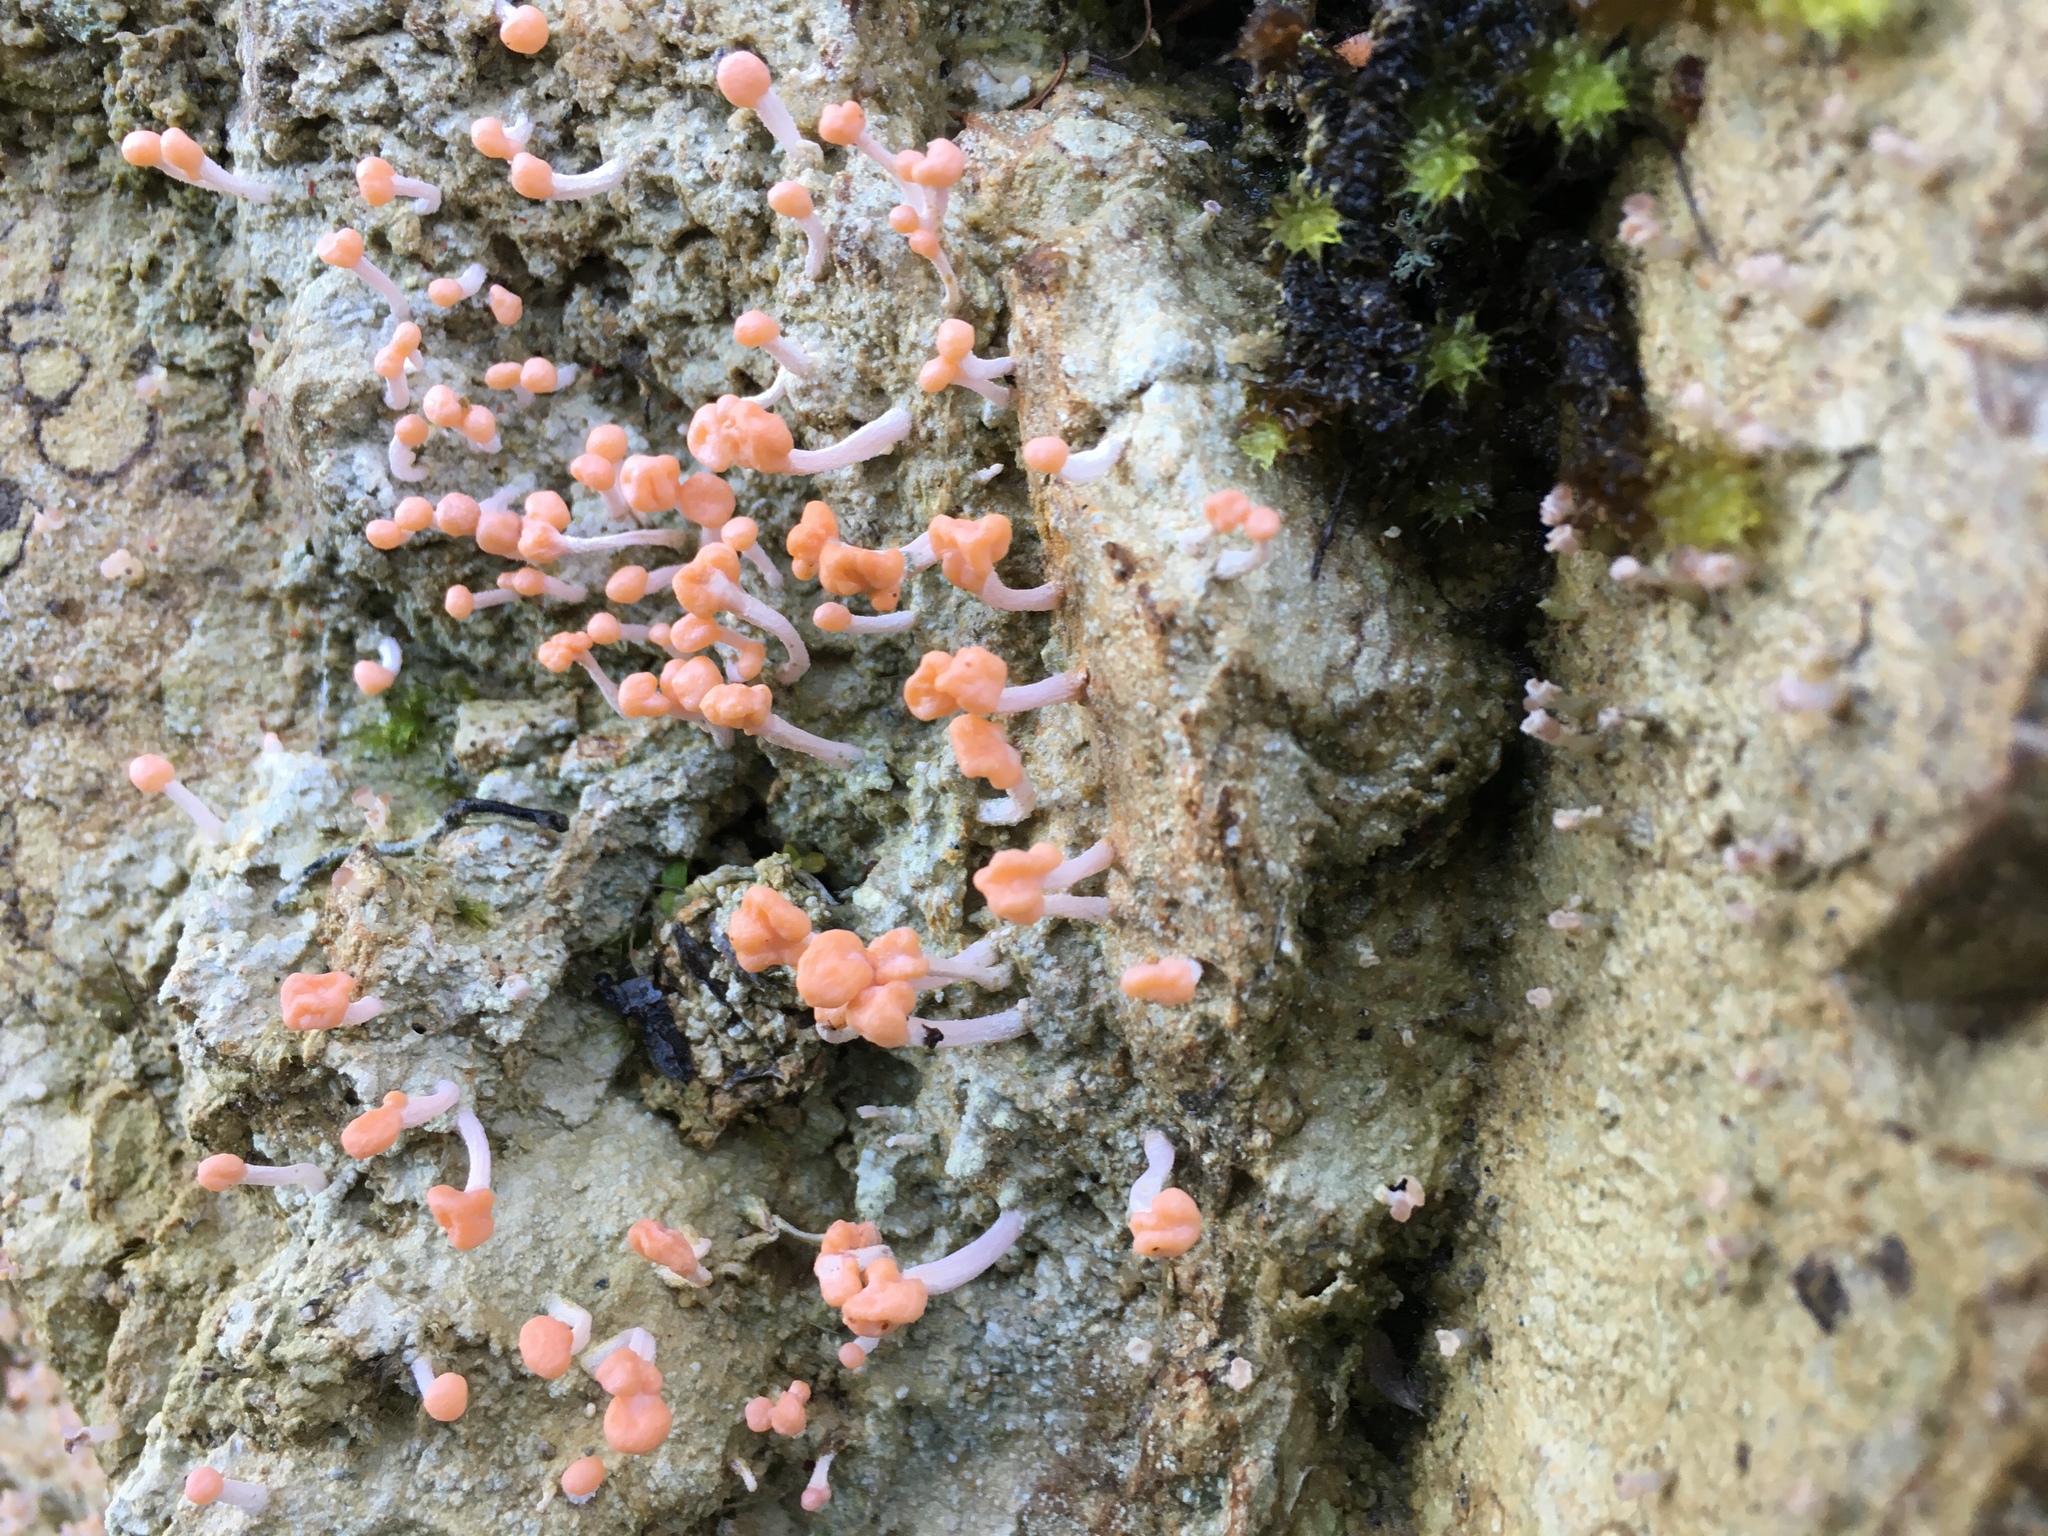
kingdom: Fungi
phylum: Ascomycota
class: Lecanoromycetes
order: Pertusariales
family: Icmadophilaceae
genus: Dibaeis
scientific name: Dibaeis arcuata
